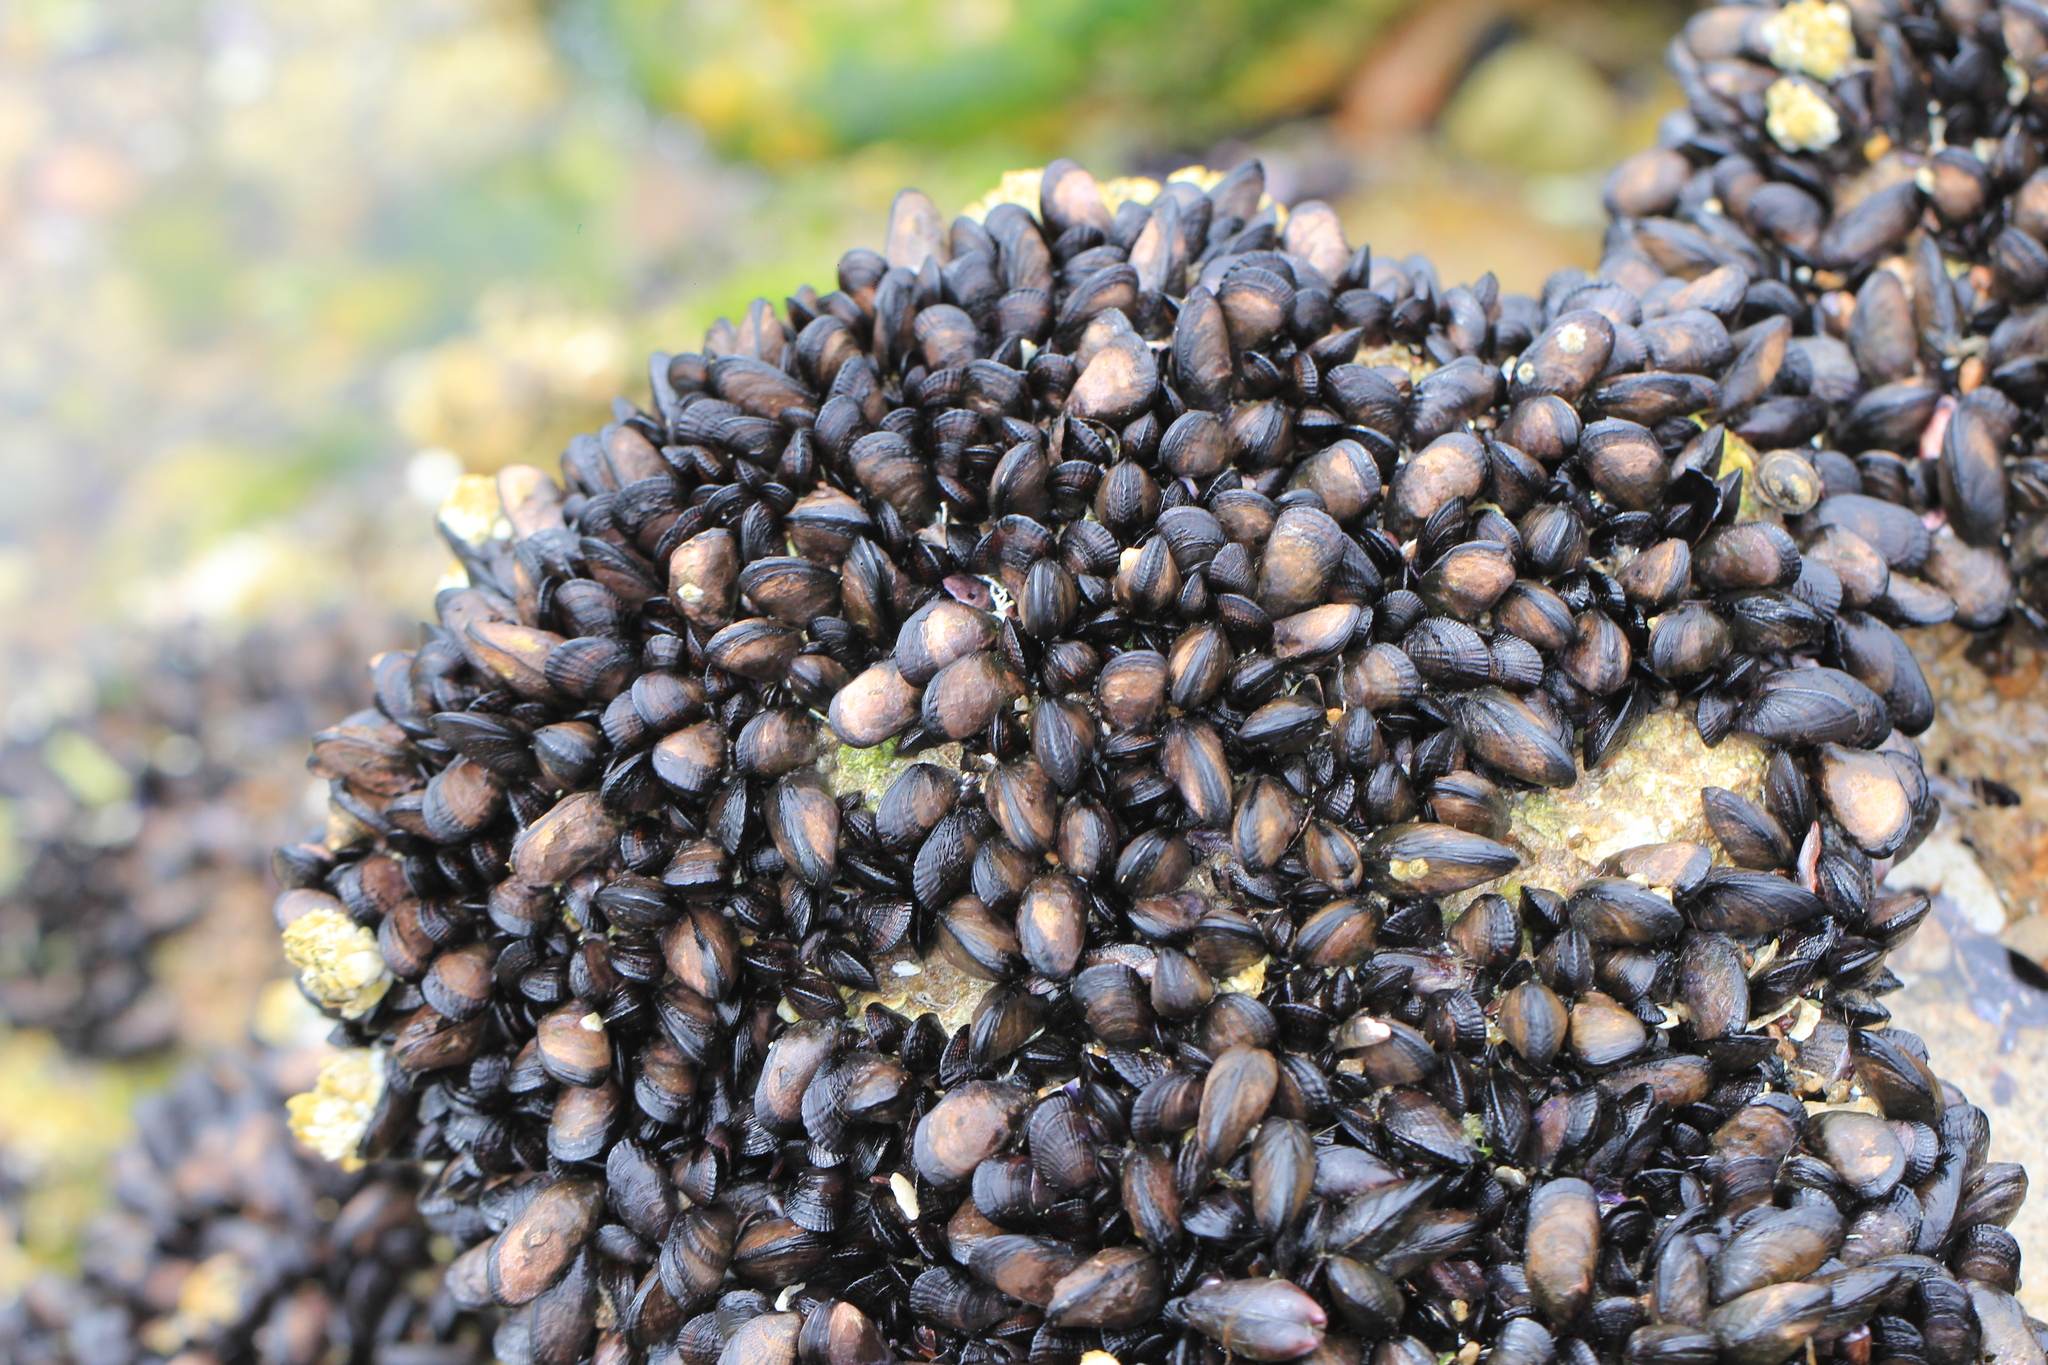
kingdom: Animalia
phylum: Mollusca
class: Bivalvia
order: Mytilida
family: Mytilidae
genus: Perumytilus
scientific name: Perumytilus purpuratus
